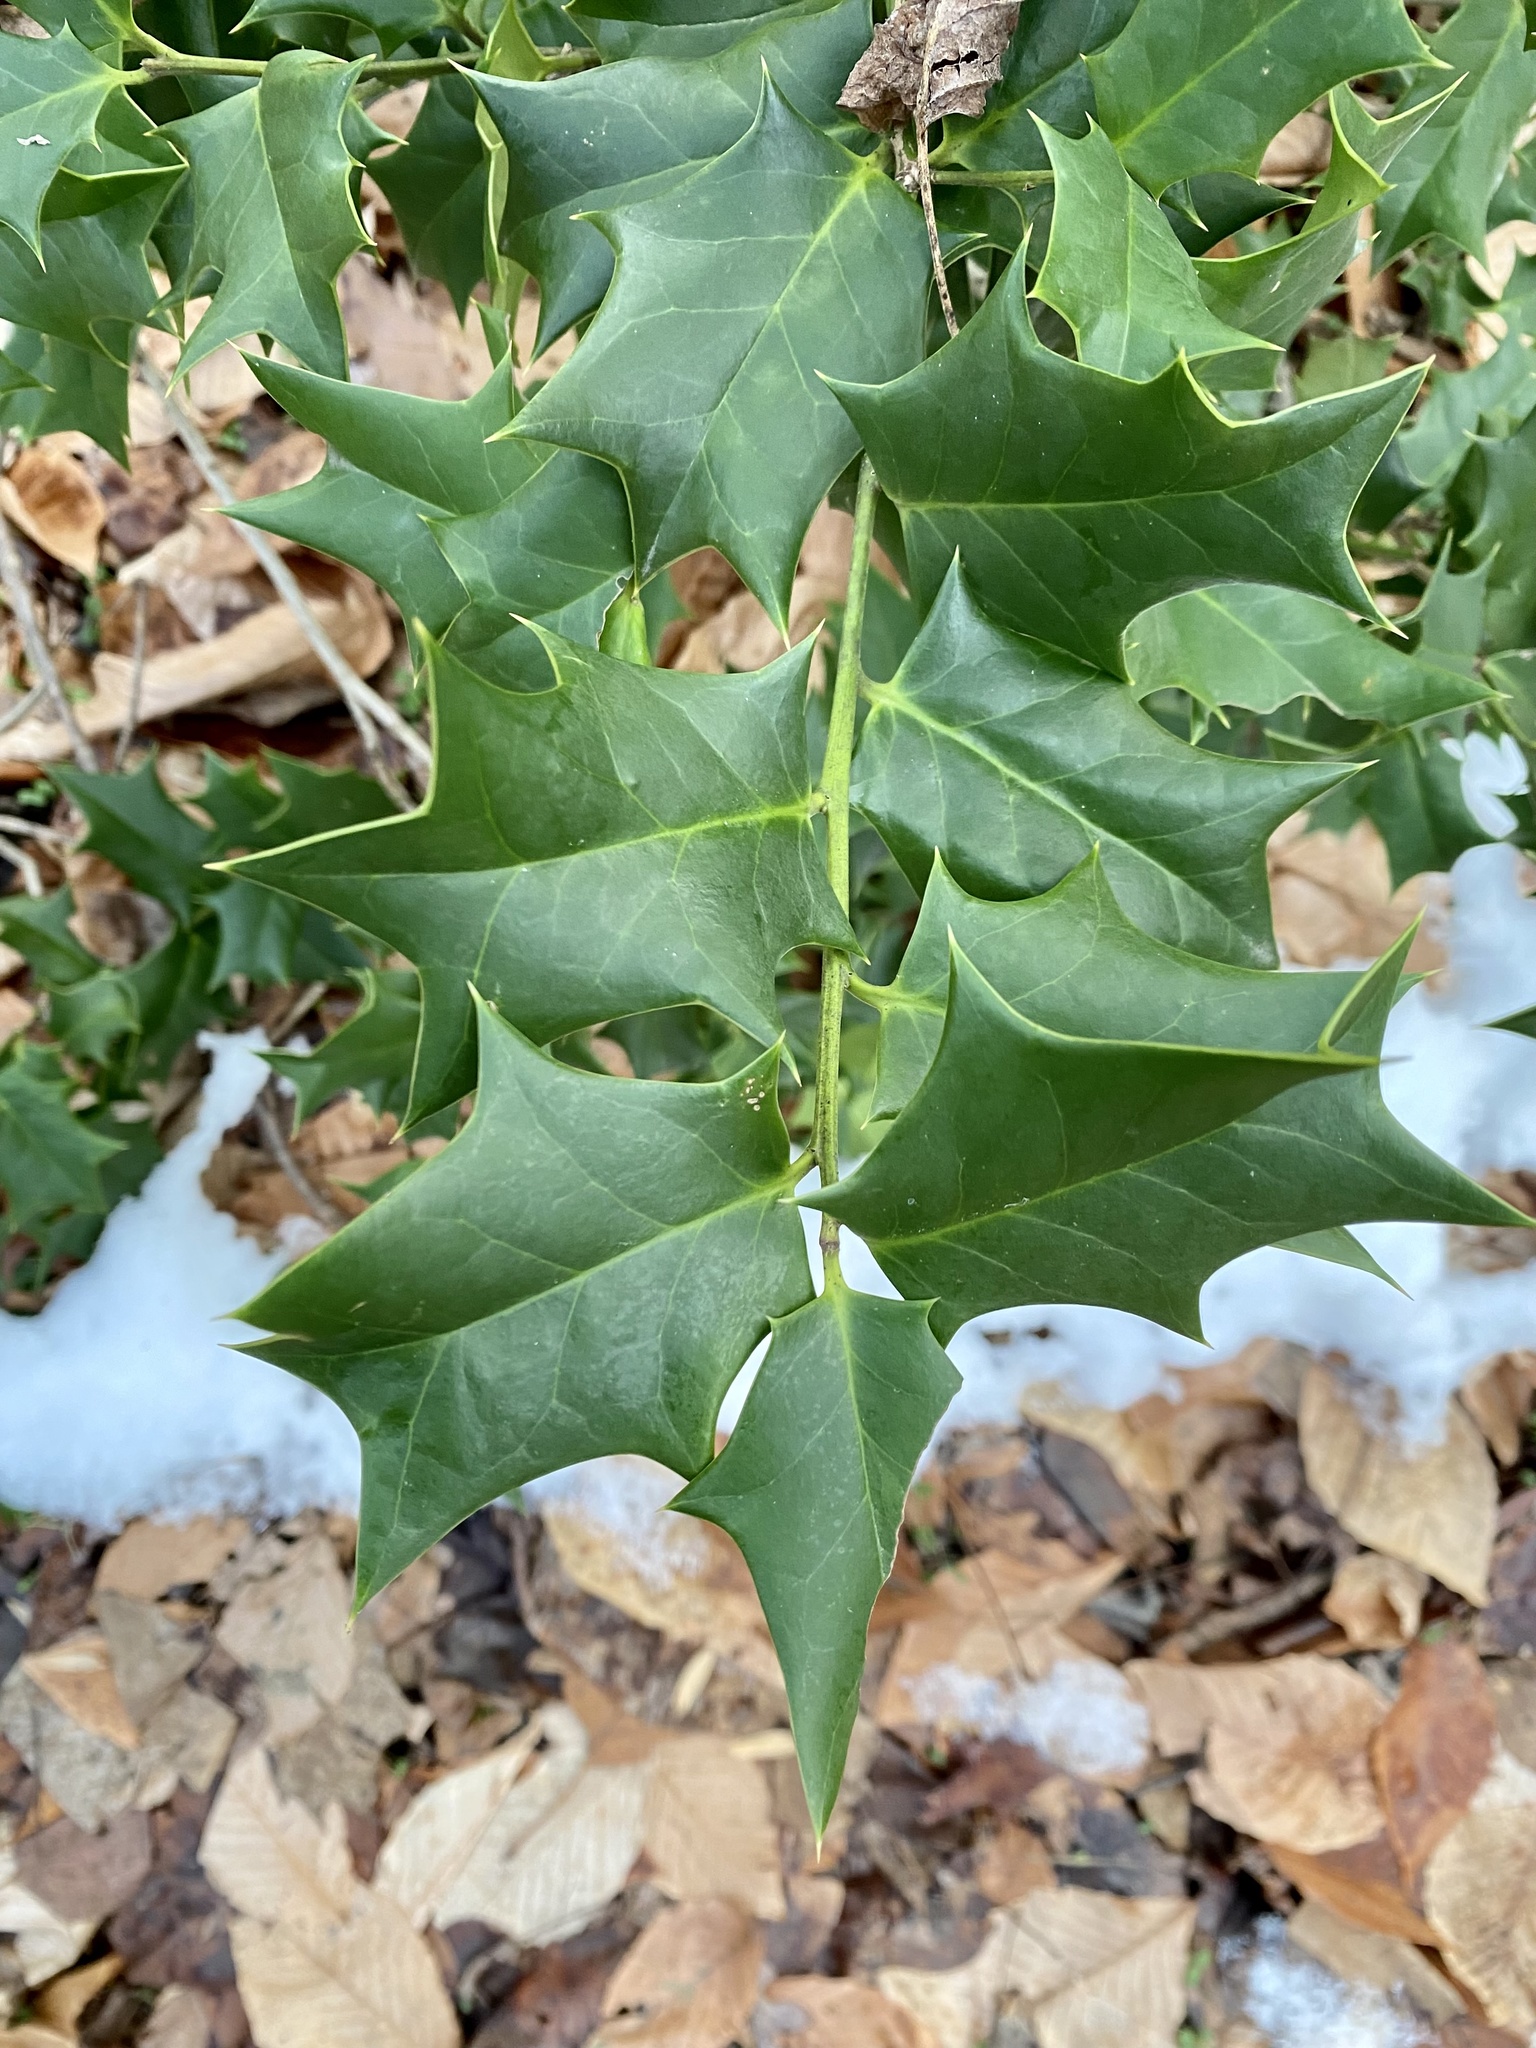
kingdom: Plantae
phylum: Tracheophyta
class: Magnoliopsida
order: Aquifoliales
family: Aquifoliaceae
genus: Ilex
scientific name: Ilex cornuta
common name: Chinese holly
